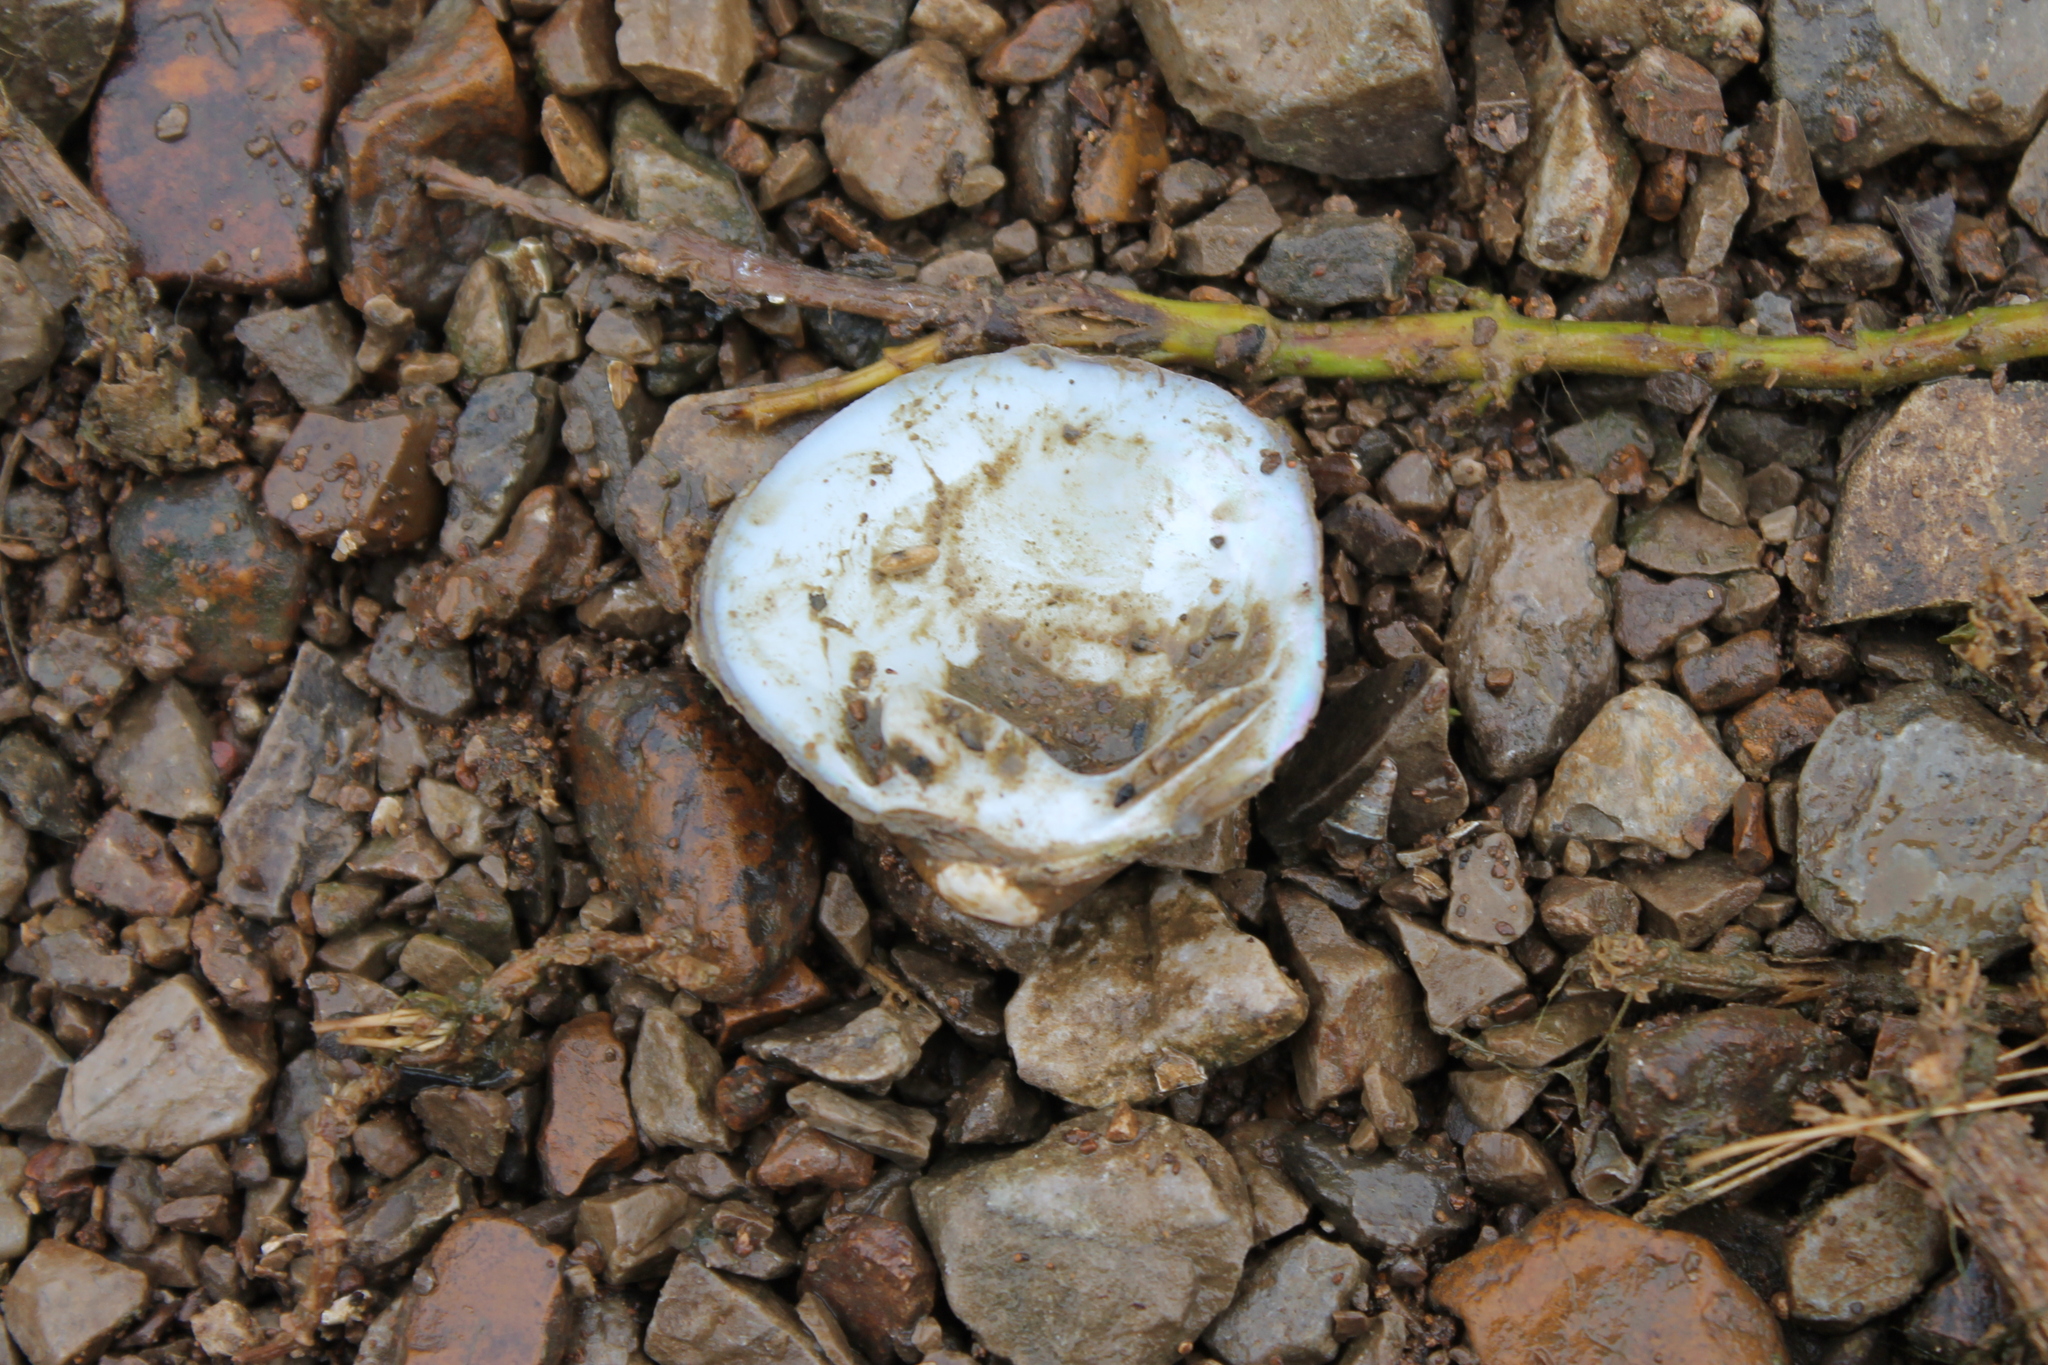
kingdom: Animalia
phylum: Mollusca
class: Bivalvia
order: Unionida
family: Unionidae
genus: Cyclonaias
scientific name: Cyclonaias pustulosa
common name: Pimpleback
